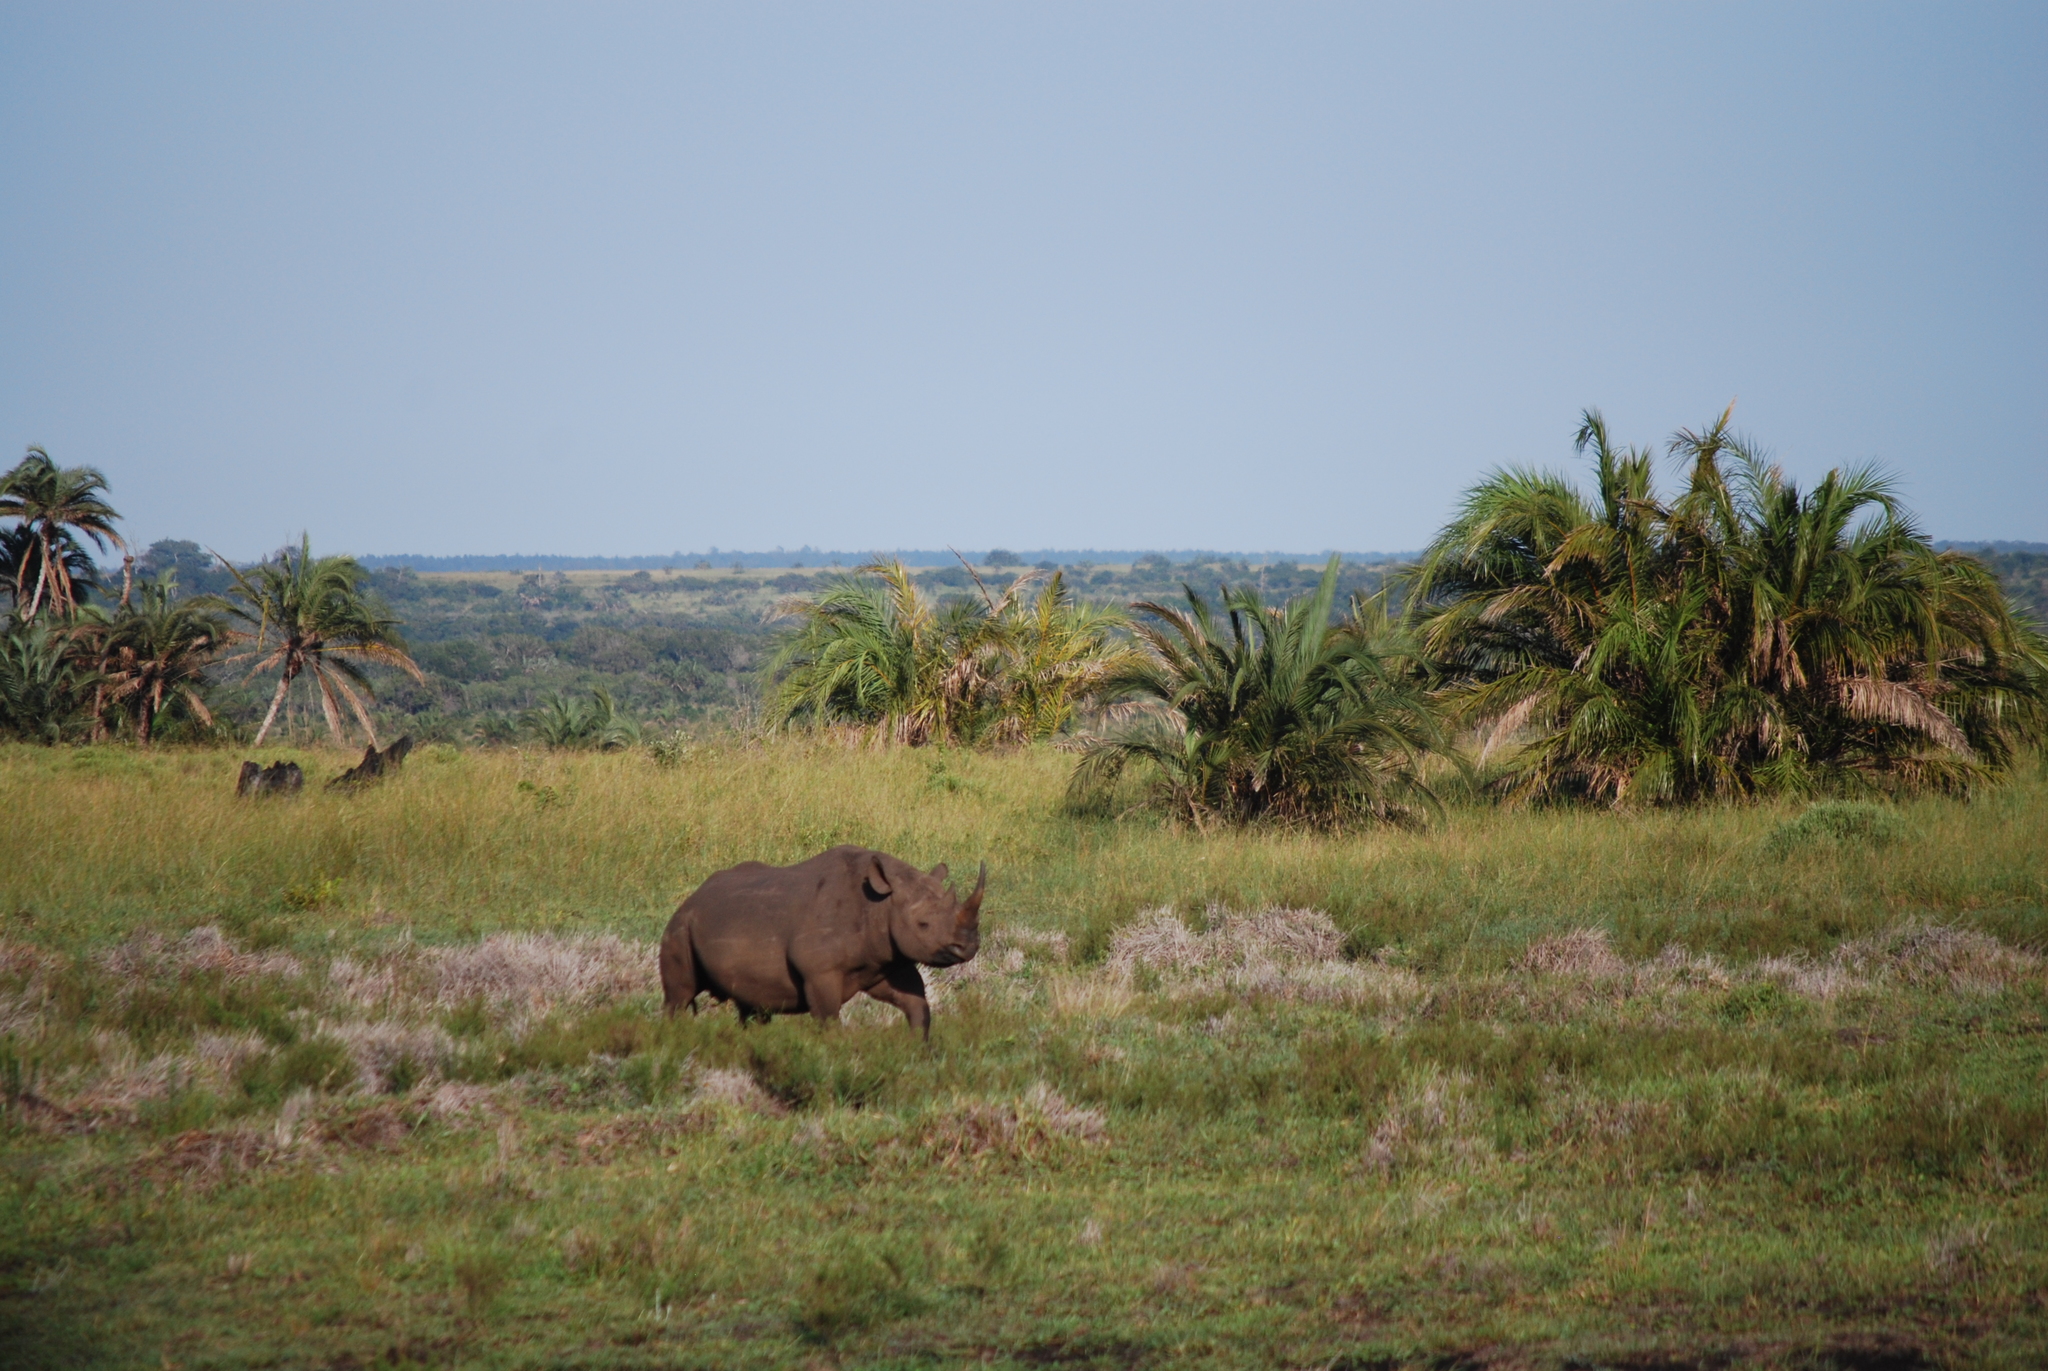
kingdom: Animalia
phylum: Chordata
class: Mammalia
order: Perissodactyla
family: Rhinocerotidae
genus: Diceros
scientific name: Diceros bicornis
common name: Black rhinoceros
